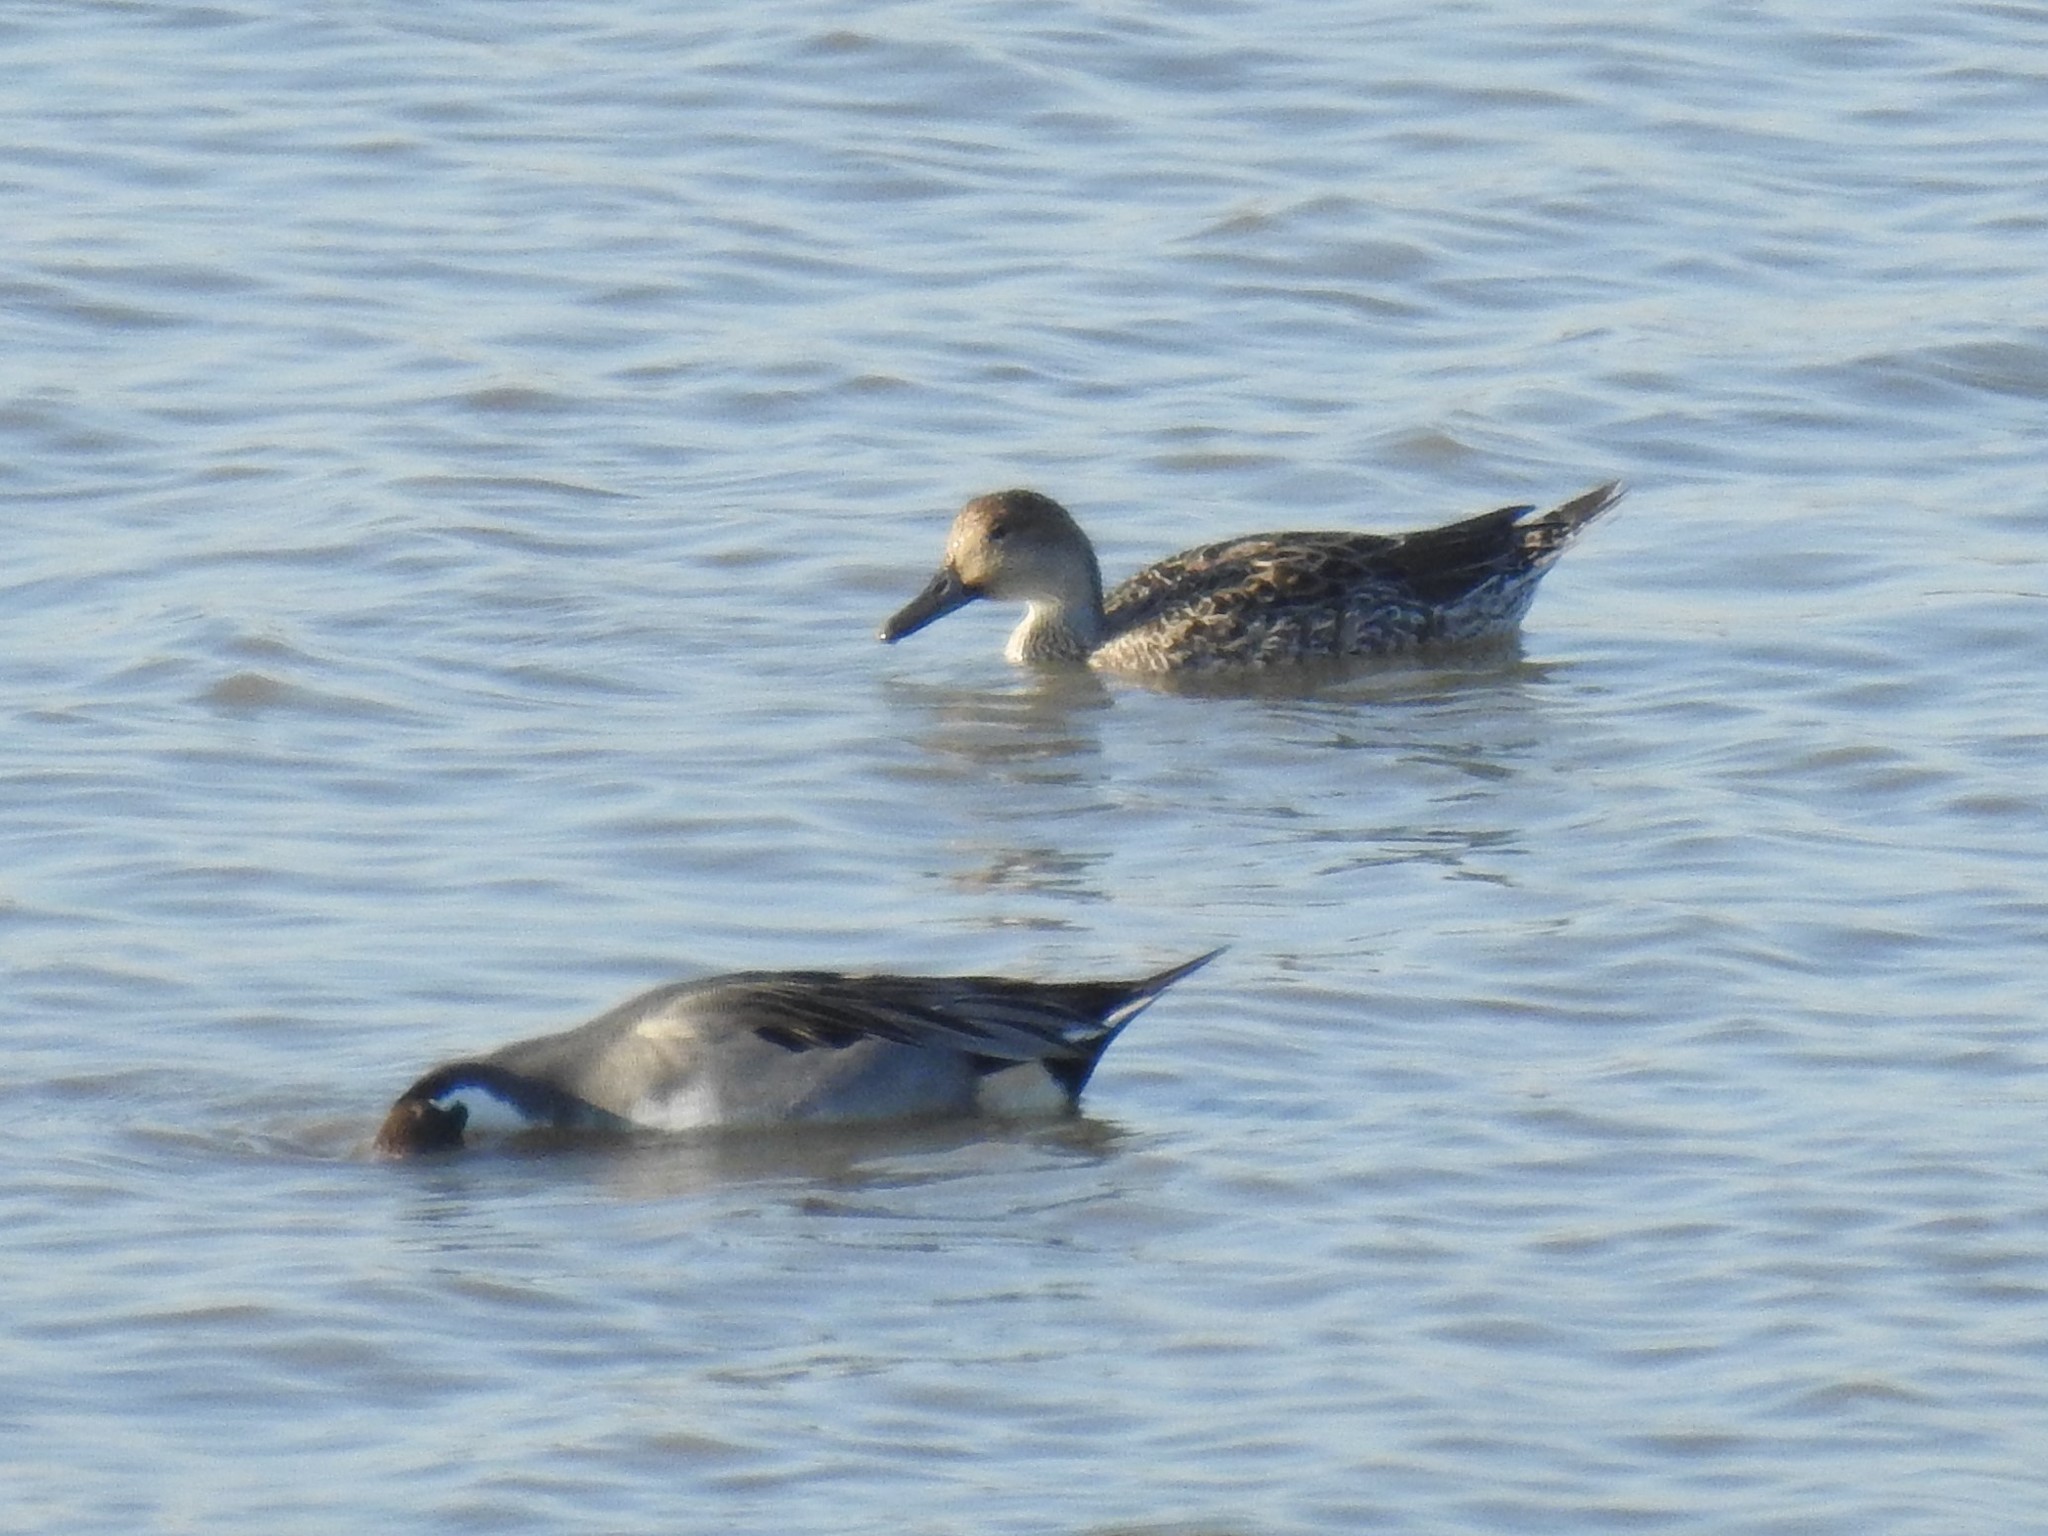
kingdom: Animalia
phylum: Chordata
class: Aves
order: Anseriformes
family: Anatidae
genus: Anas
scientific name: Anas acuta
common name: Northern pintail
